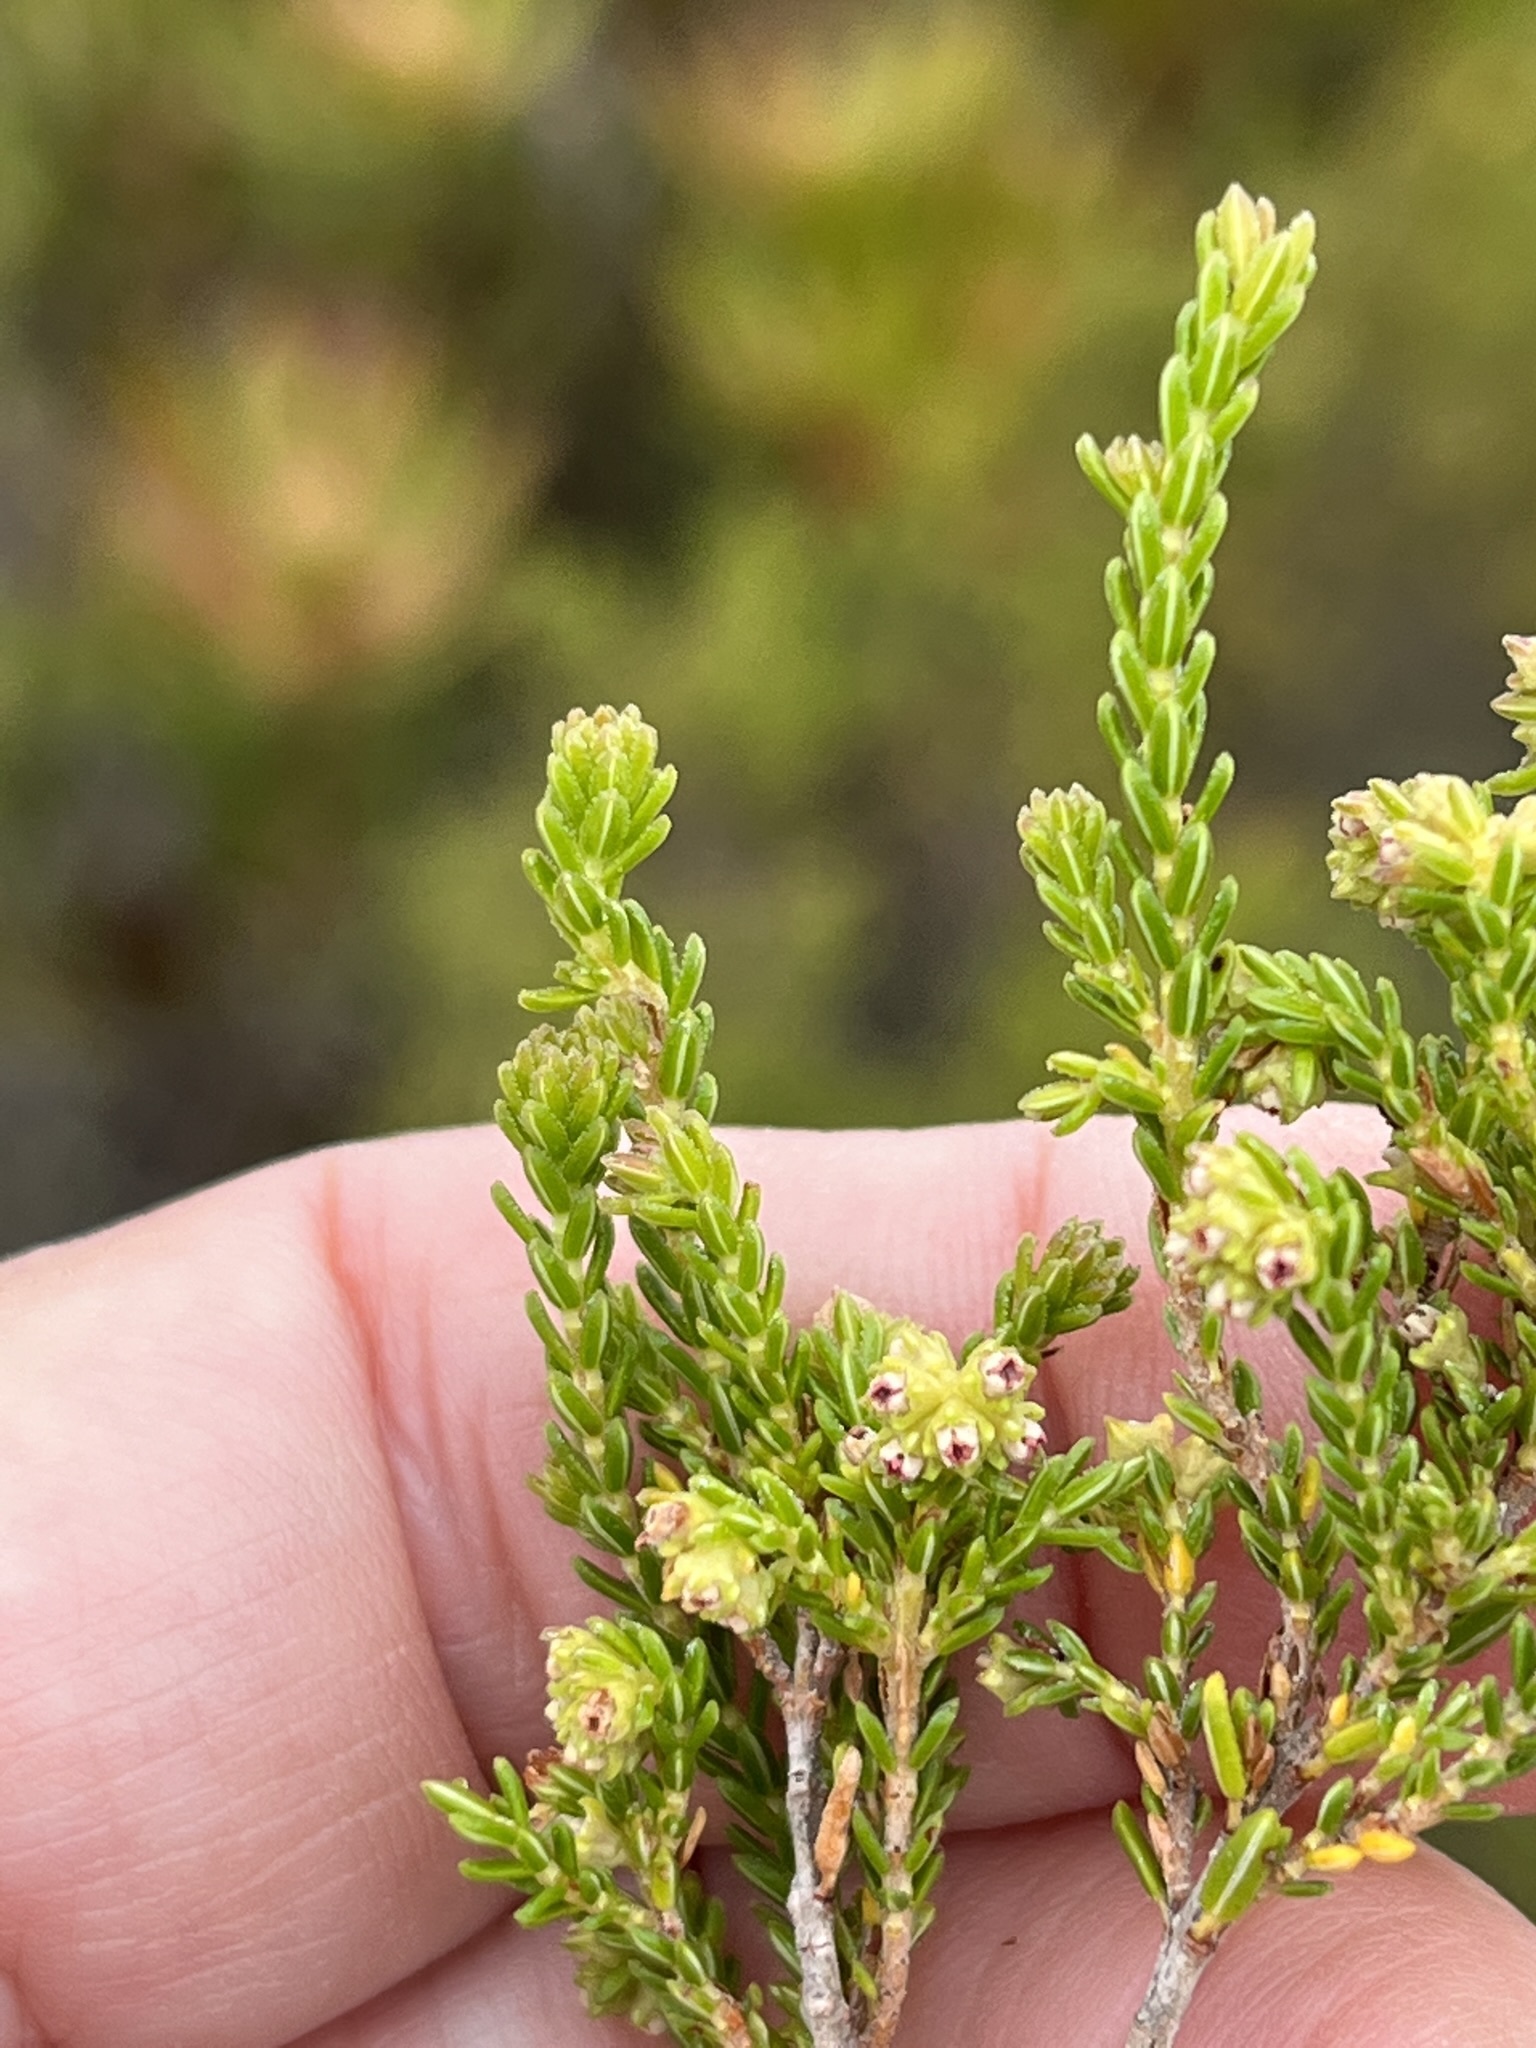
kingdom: Plantae
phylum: Tracheophyta
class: Magnoliopsida
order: Ericales
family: Ericaceae
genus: Erica
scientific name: Erica serrata
